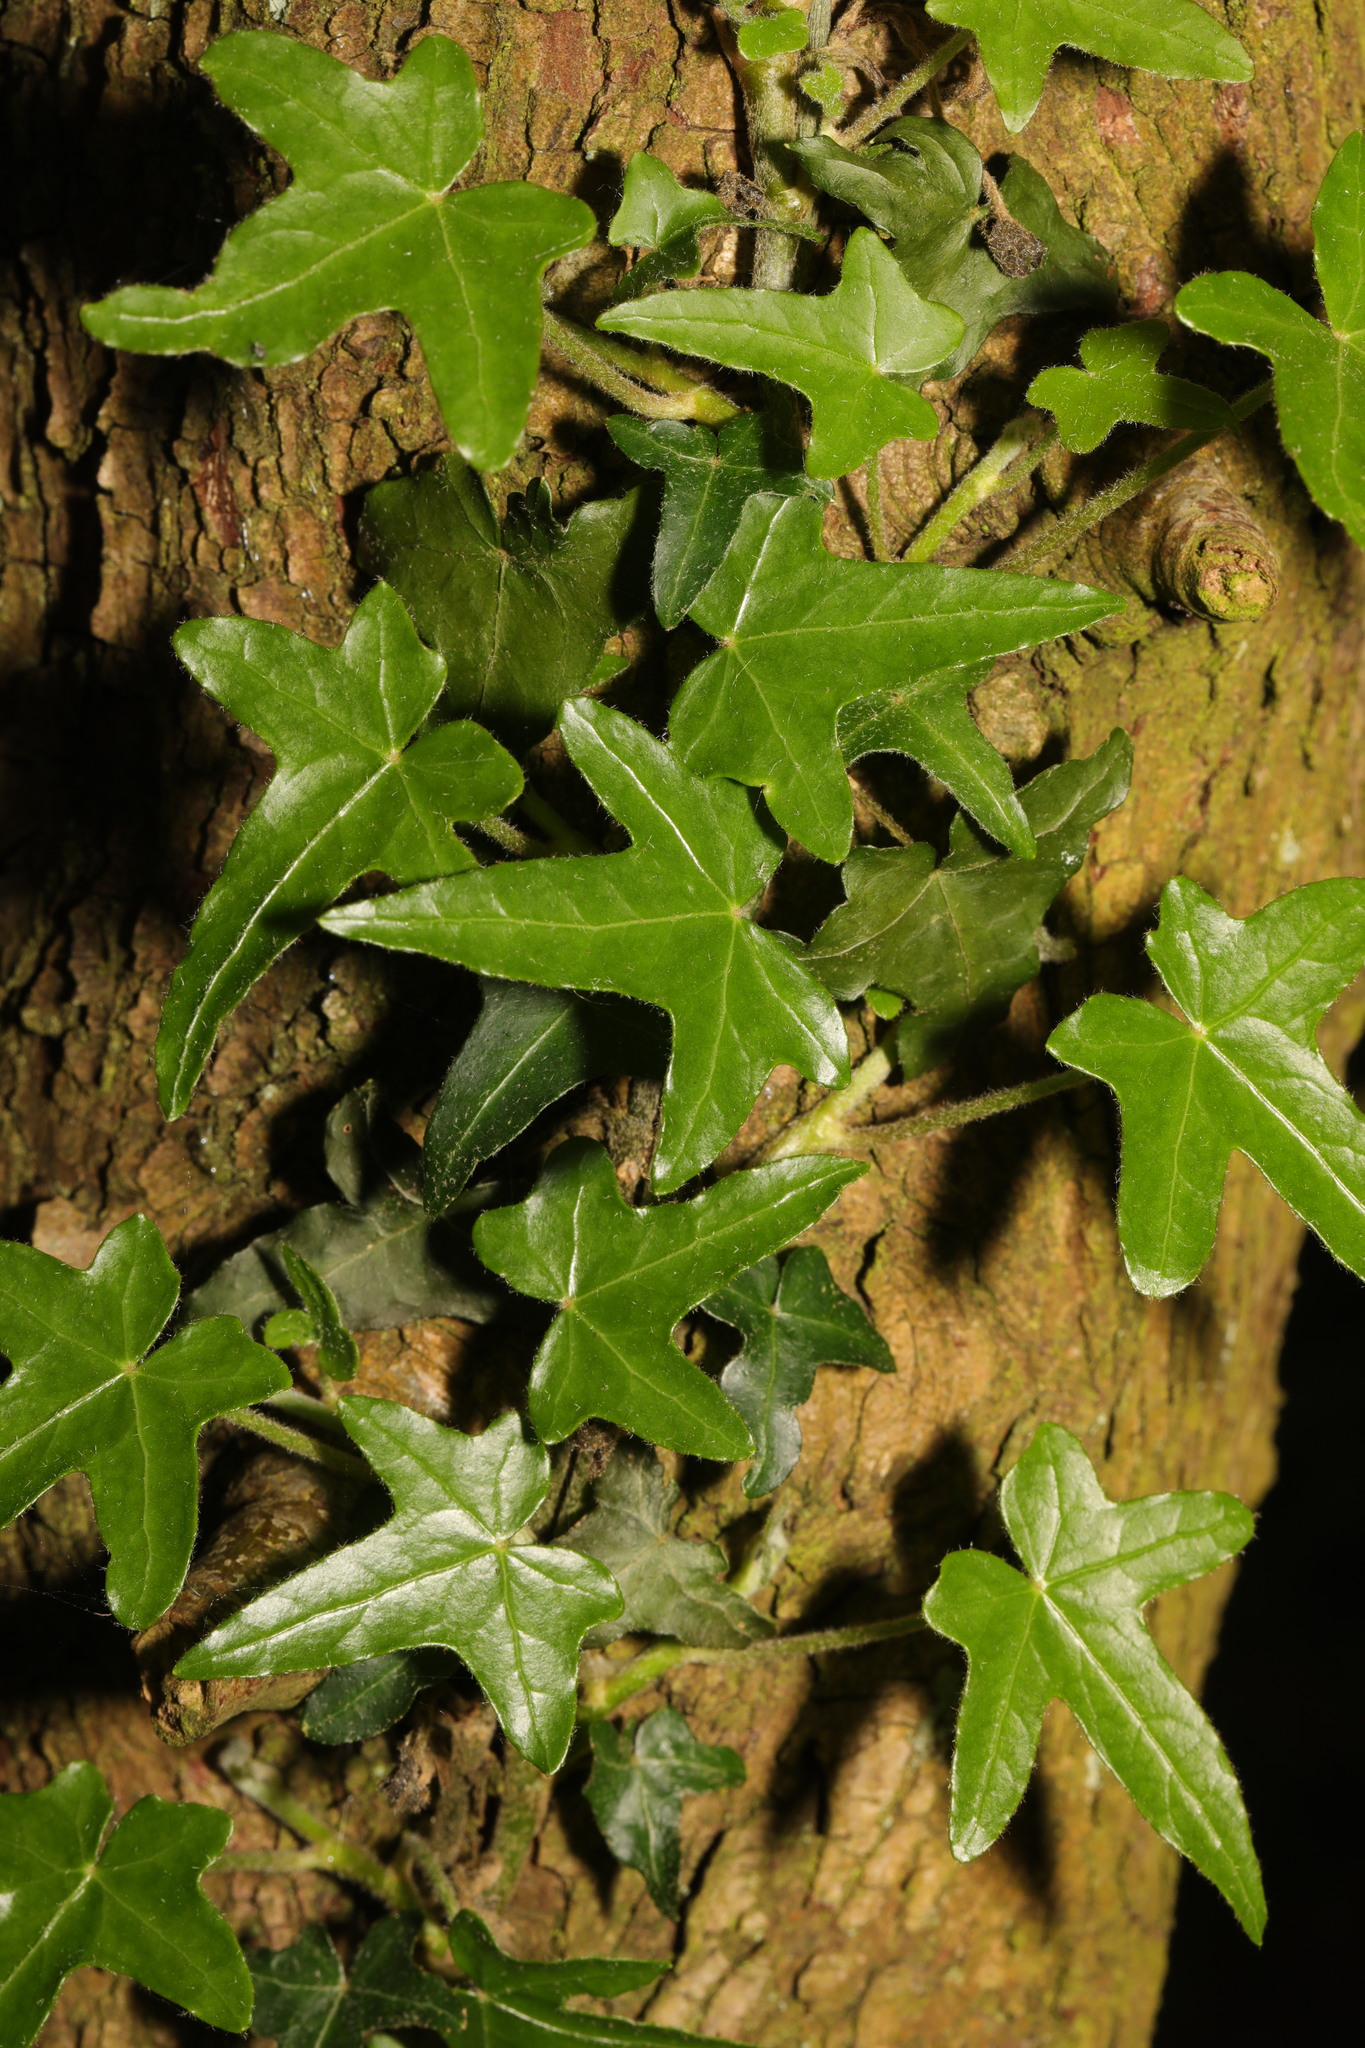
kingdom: Plantae
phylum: Tracheophyta
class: Magnoliopsida
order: Apiales
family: Araliaceae
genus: Hedera
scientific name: Hedera helix
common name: Ivy
